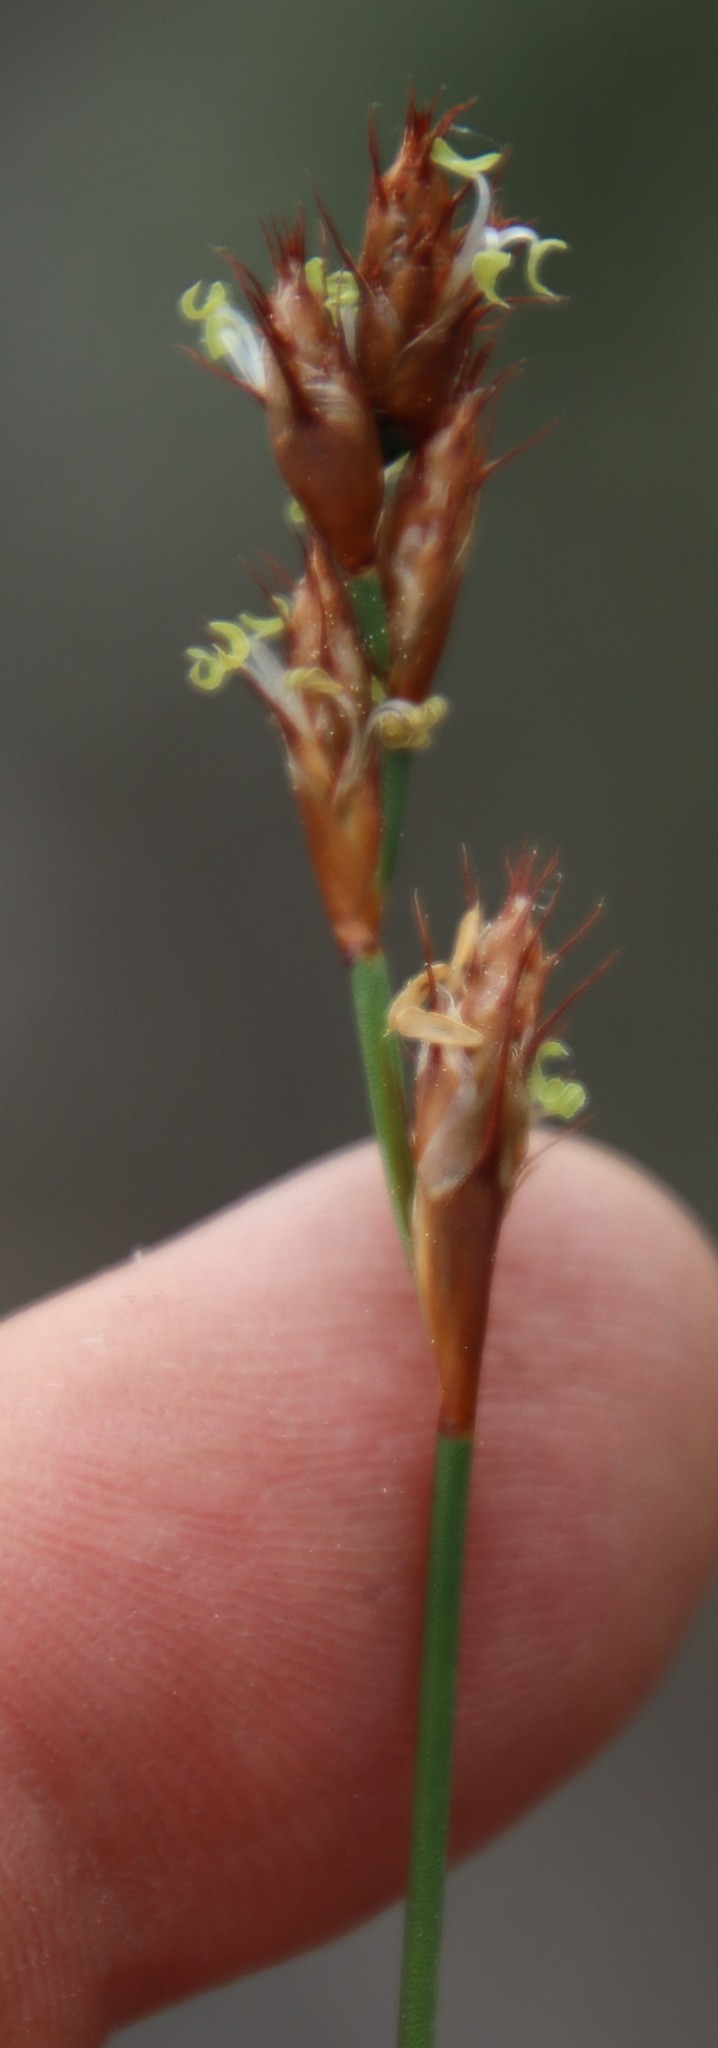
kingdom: Plantae
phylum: Tracheophyta
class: Liliopsida
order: Poales
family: Restionaceae
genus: Restio
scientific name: Restio capensis
